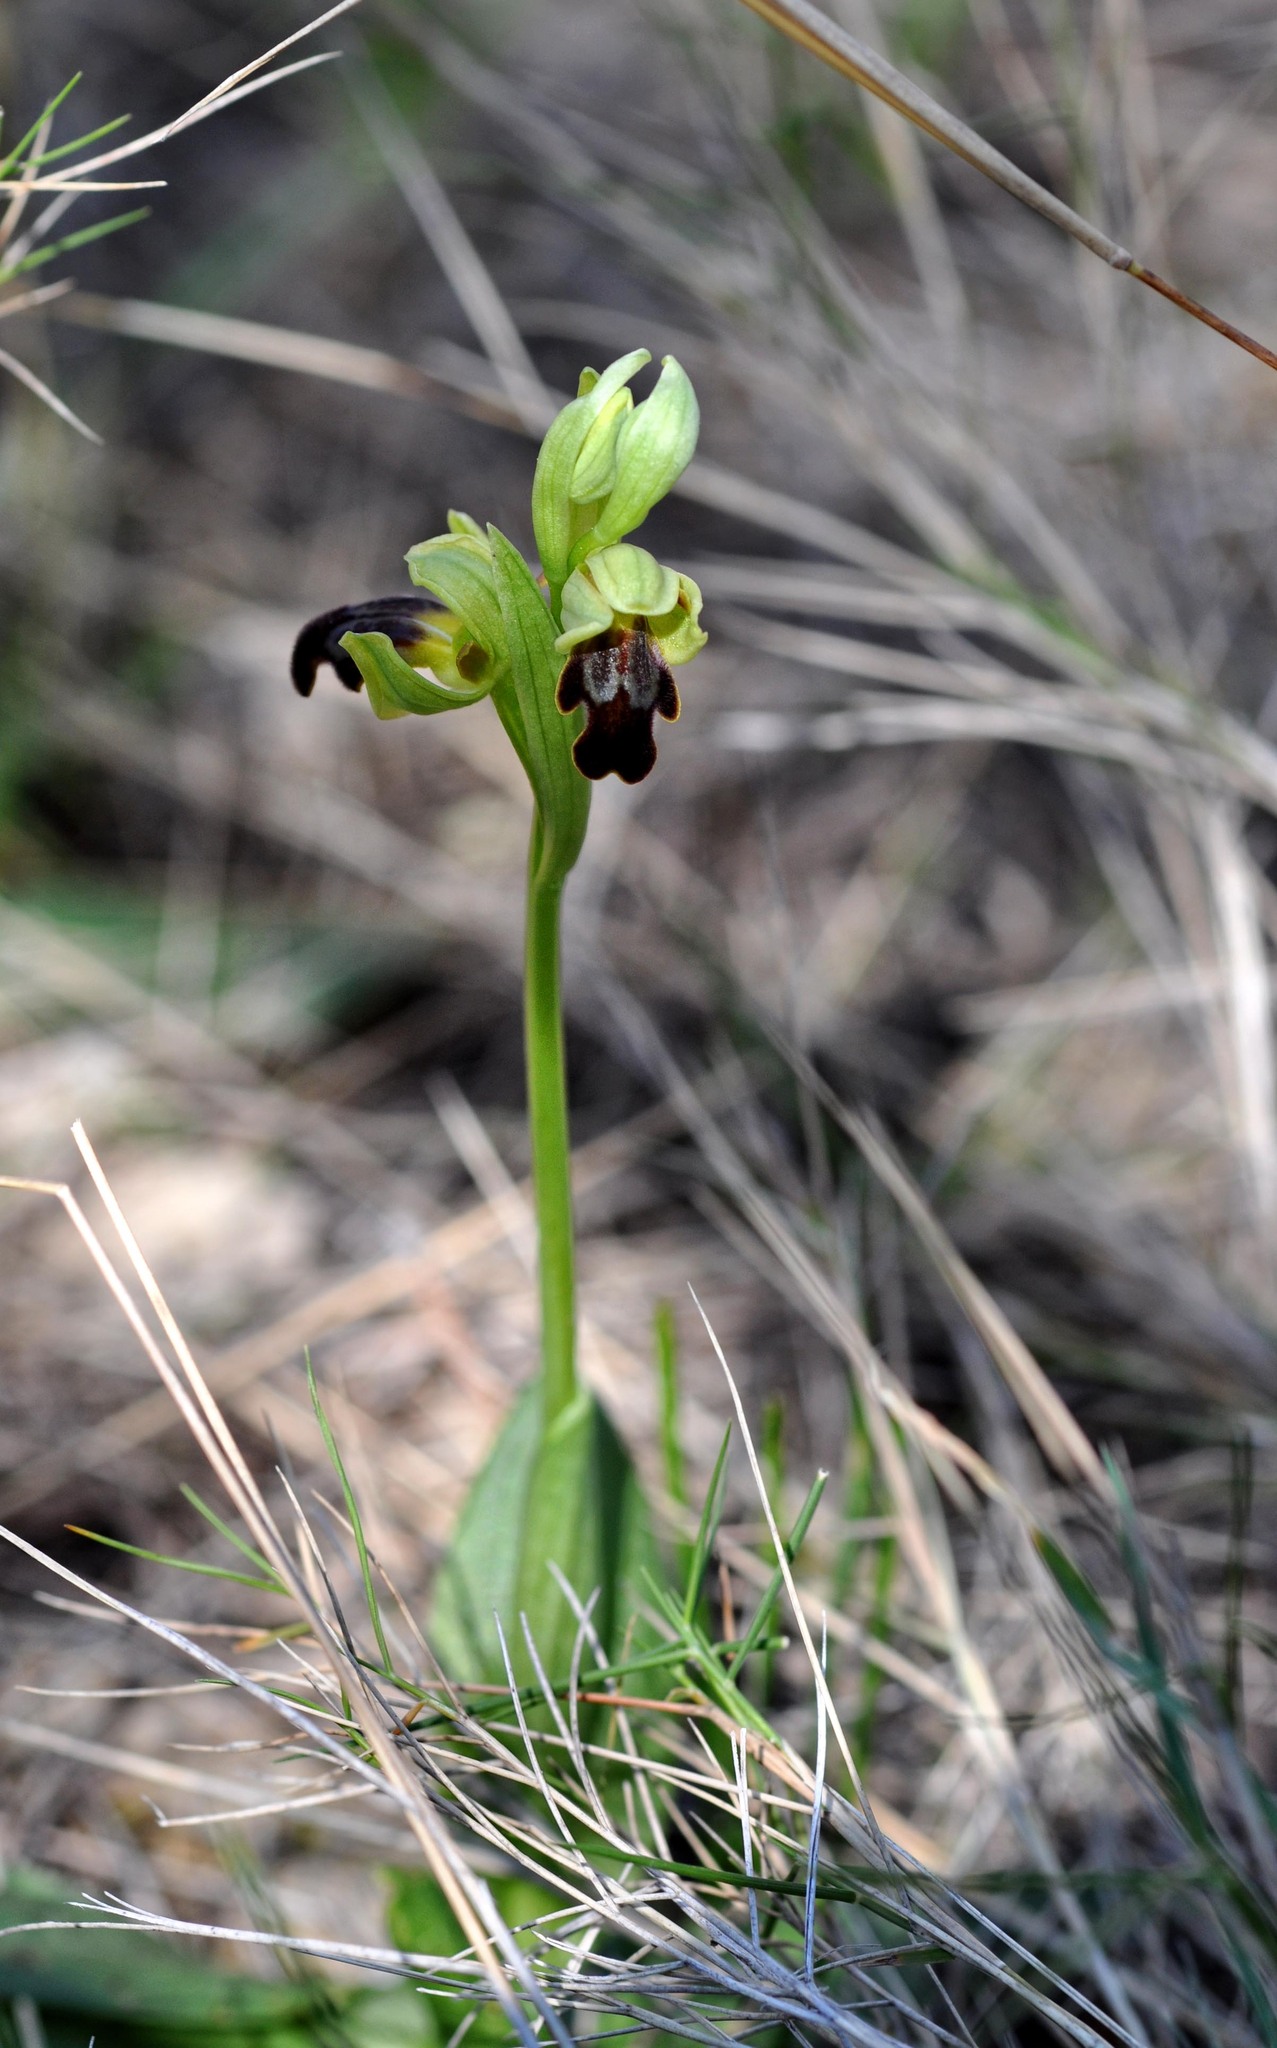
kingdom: Plantae
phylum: Tracheophyta
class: Liliopsida
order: Asparagales
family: Orchidaceae
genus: Ophrys
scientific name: Ophrys fusca
